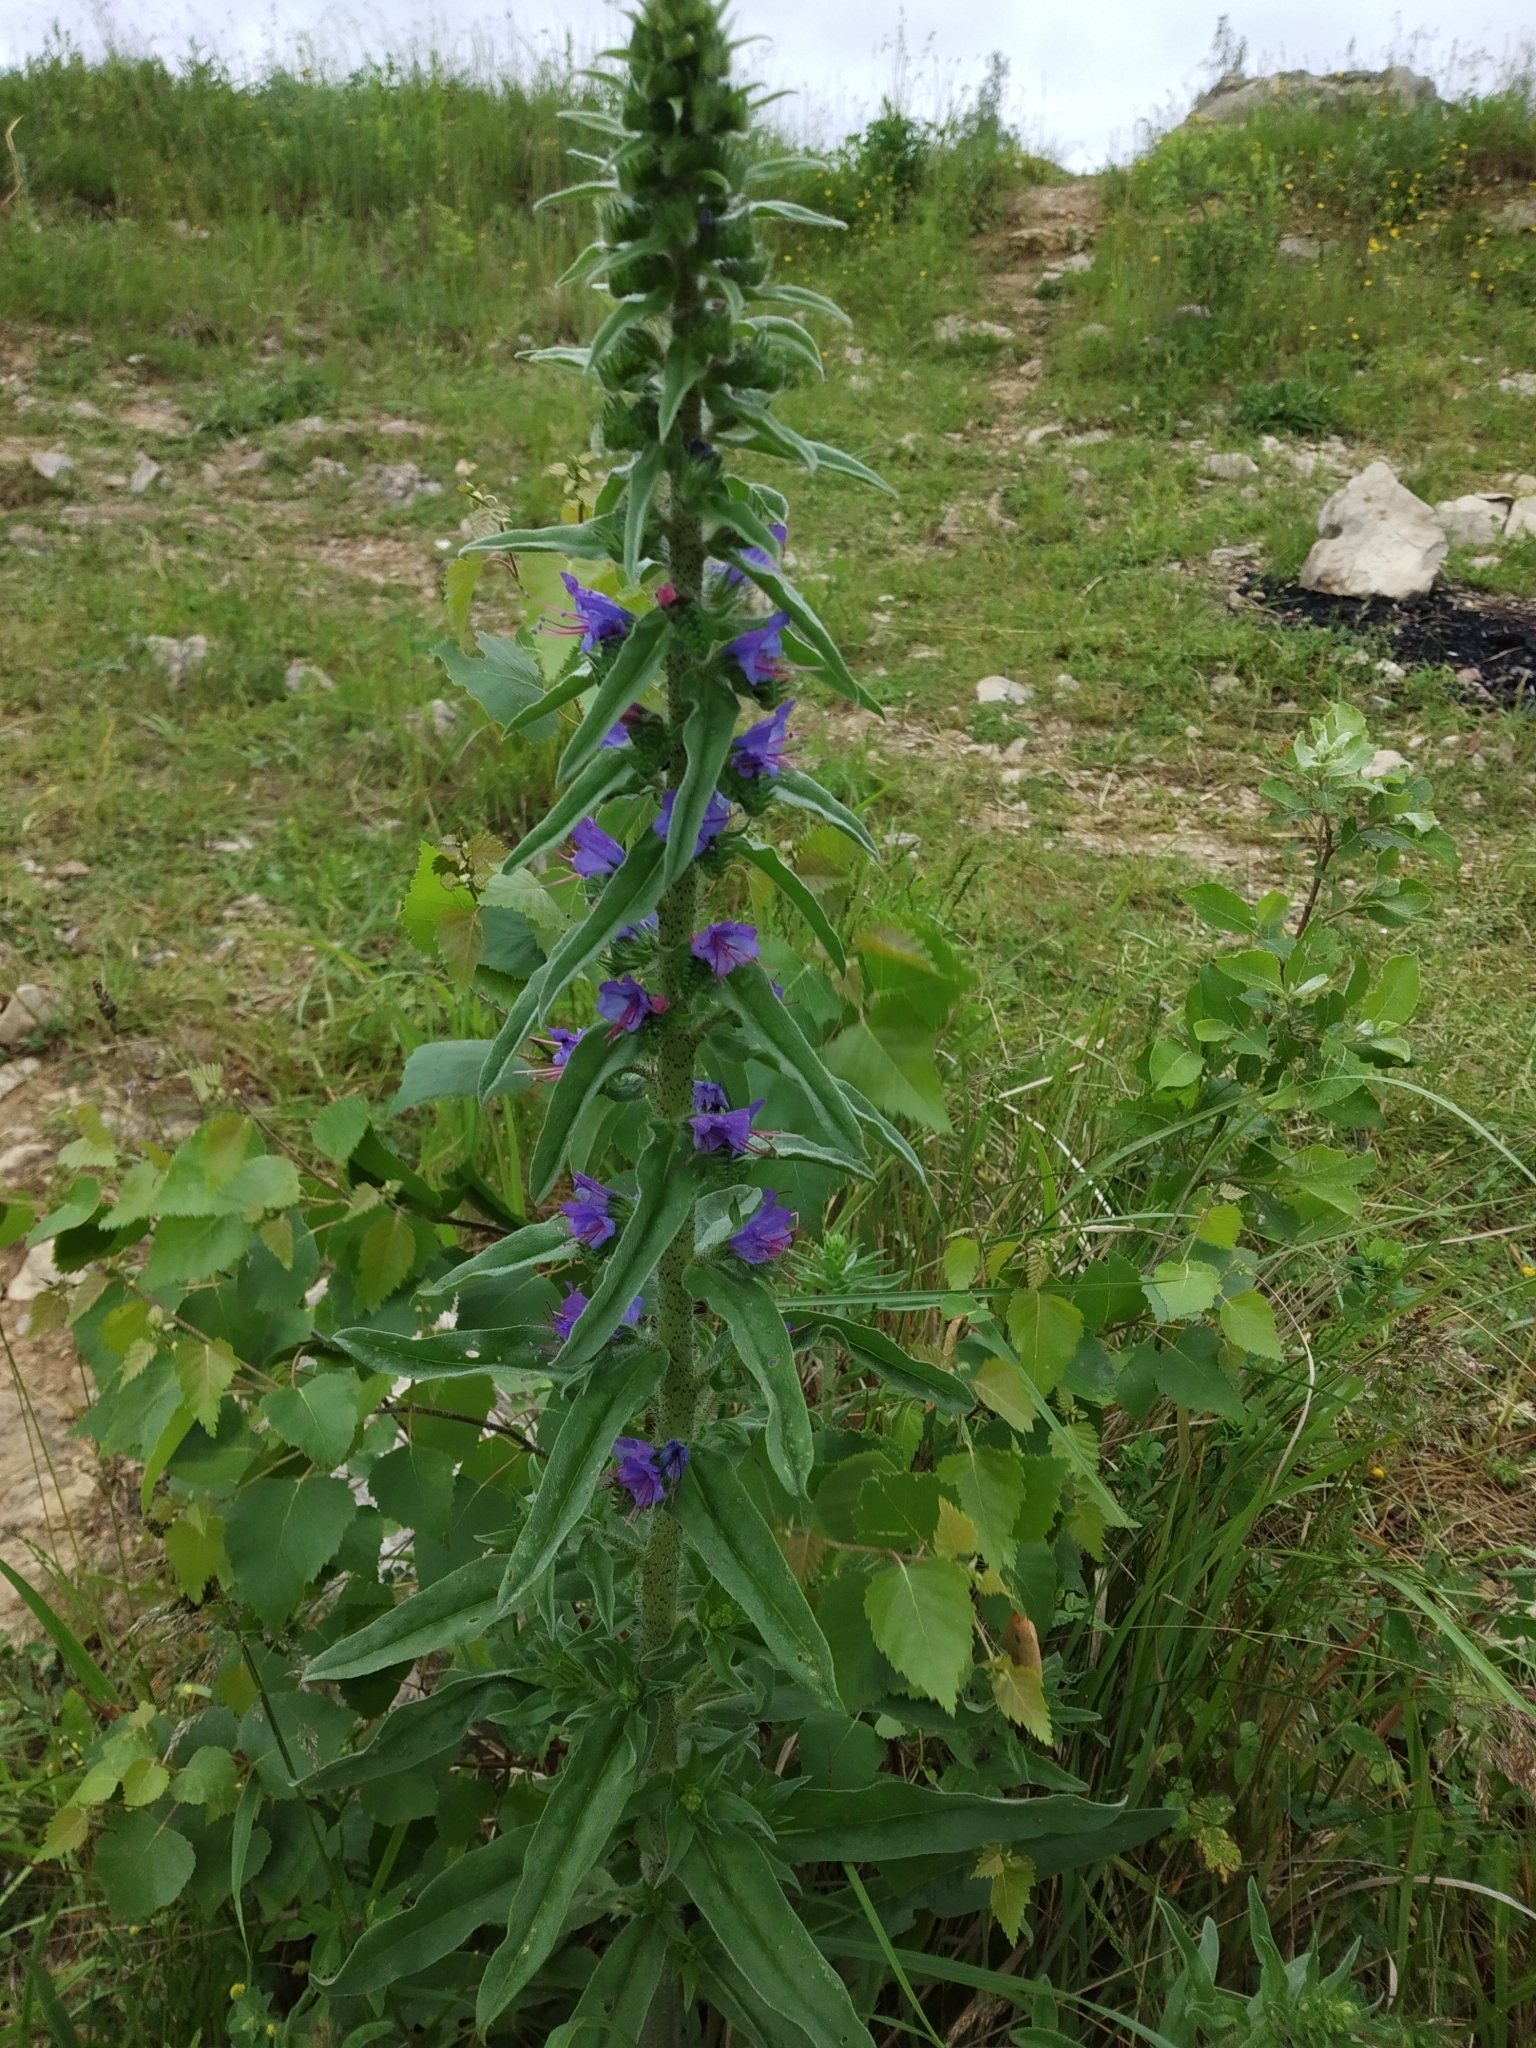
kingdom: Plantae
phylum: Tracheophyta
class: Magnoliopsida
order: Boraginales
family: Boraginaceae
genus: Echium
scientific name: Echium vulgare
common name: Common viper's bugloss
